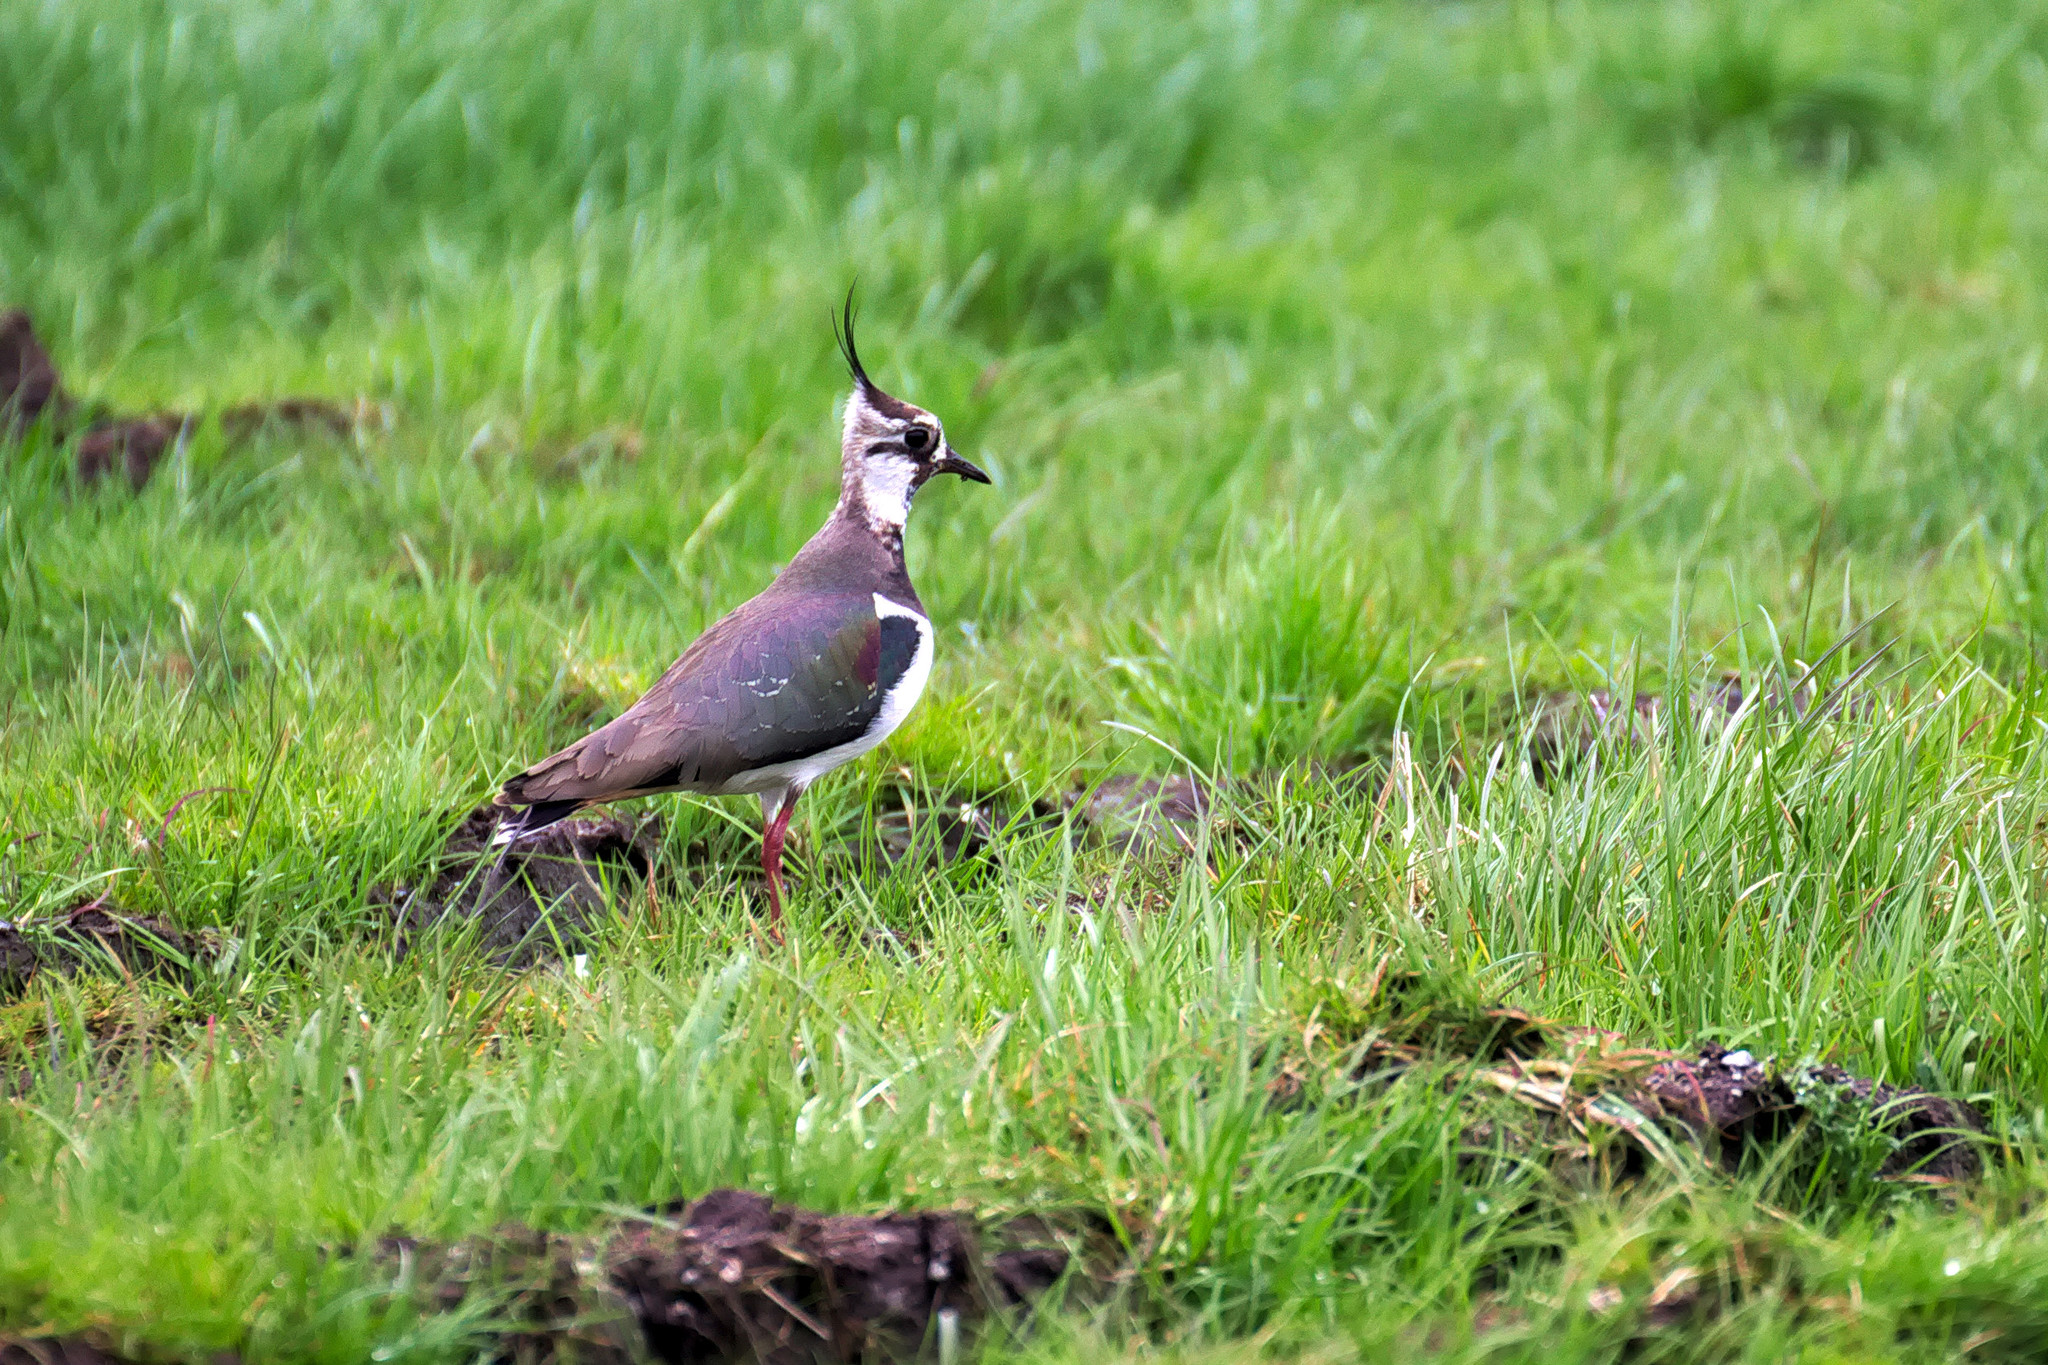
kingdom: Animalia
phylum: Chordata
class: Aves
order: Charadriiformes
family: Charadriidae
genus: Vanellus
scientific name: Vanellus vanellus
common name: Northern lapwing
